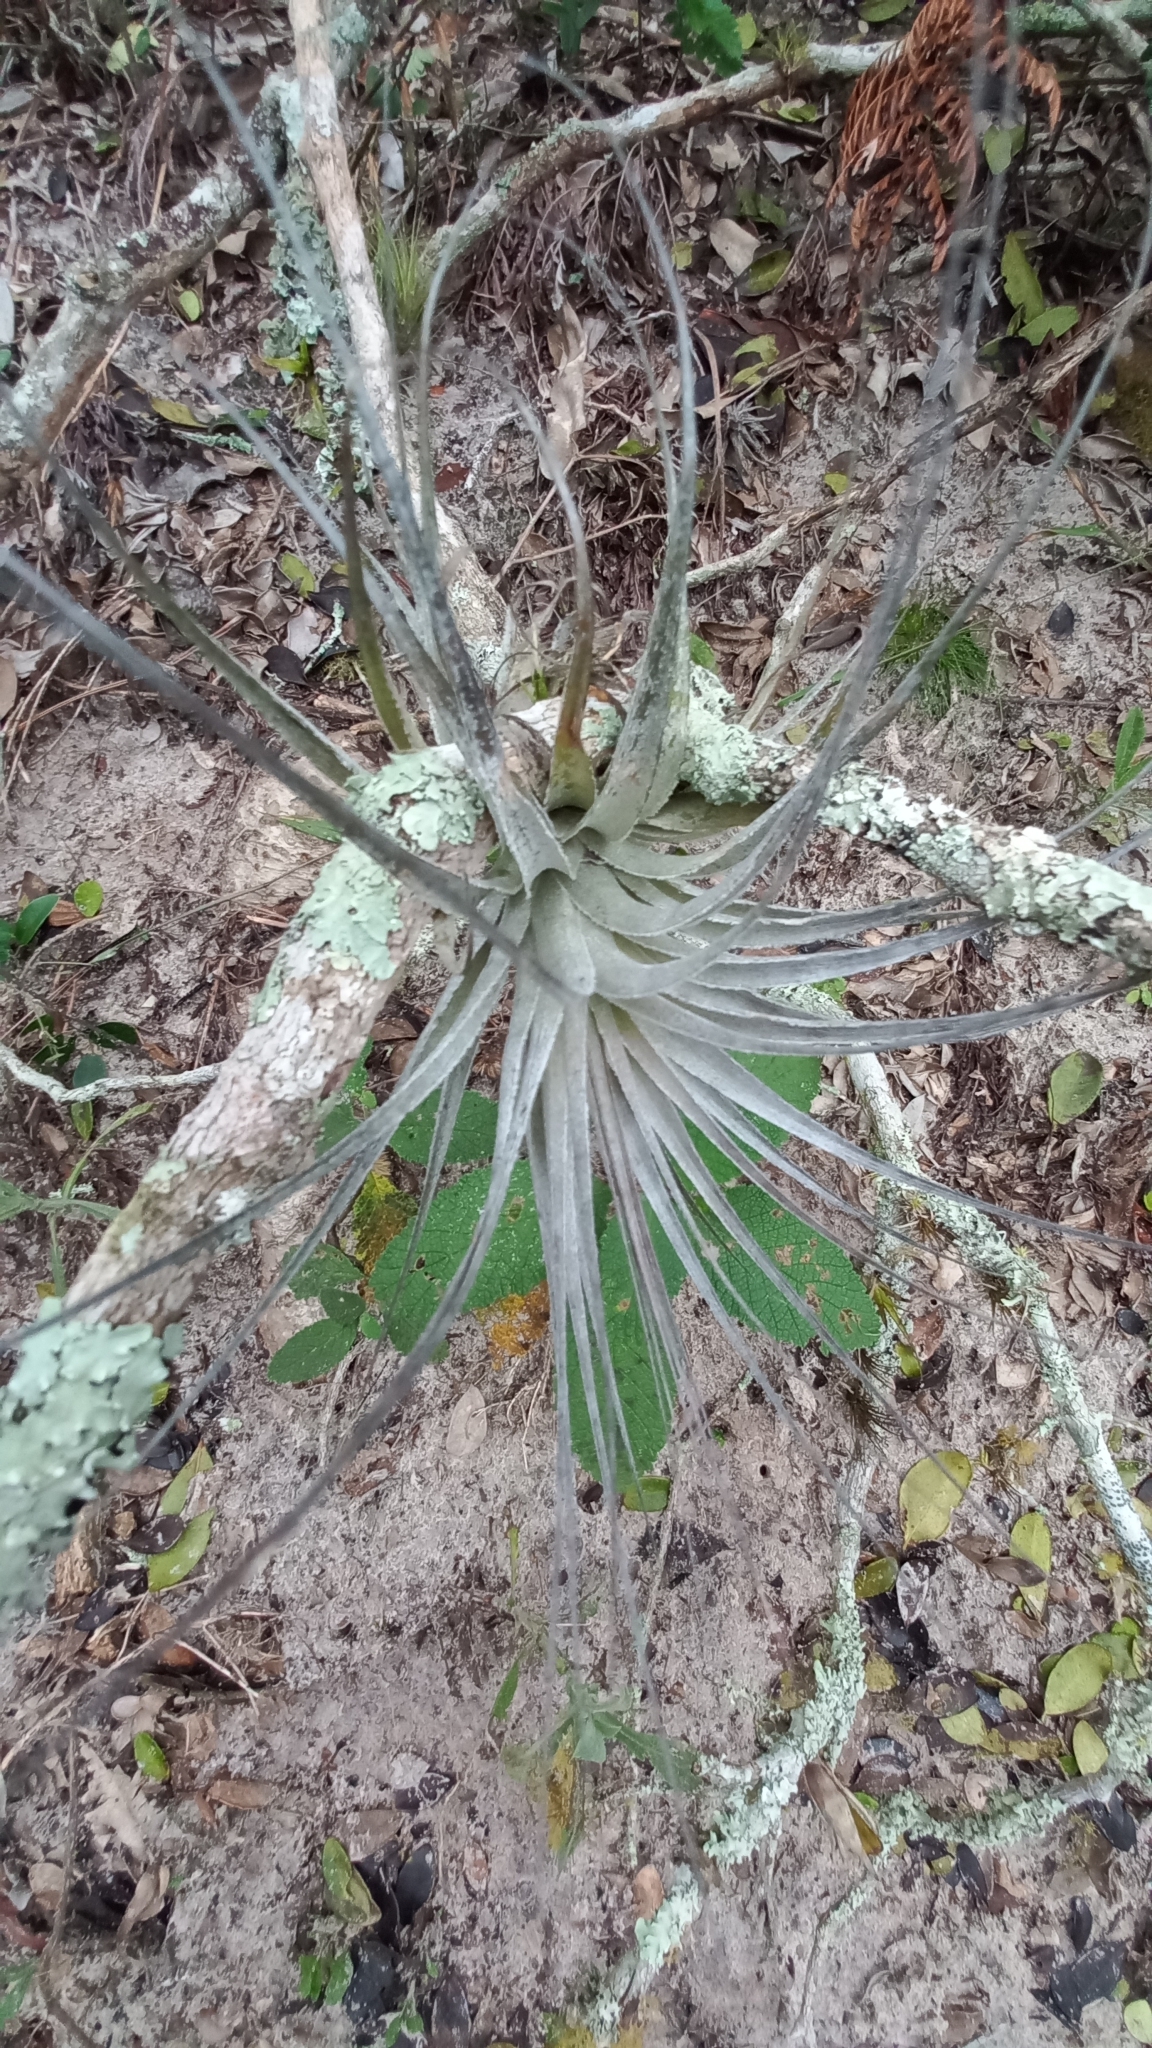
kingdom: Plantae
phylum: Tracheophyta
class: Liliopsida
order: Poales
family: Bromeliaceae
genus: Tillandsia
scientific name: Tillandsia gardneri
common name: Airplant
